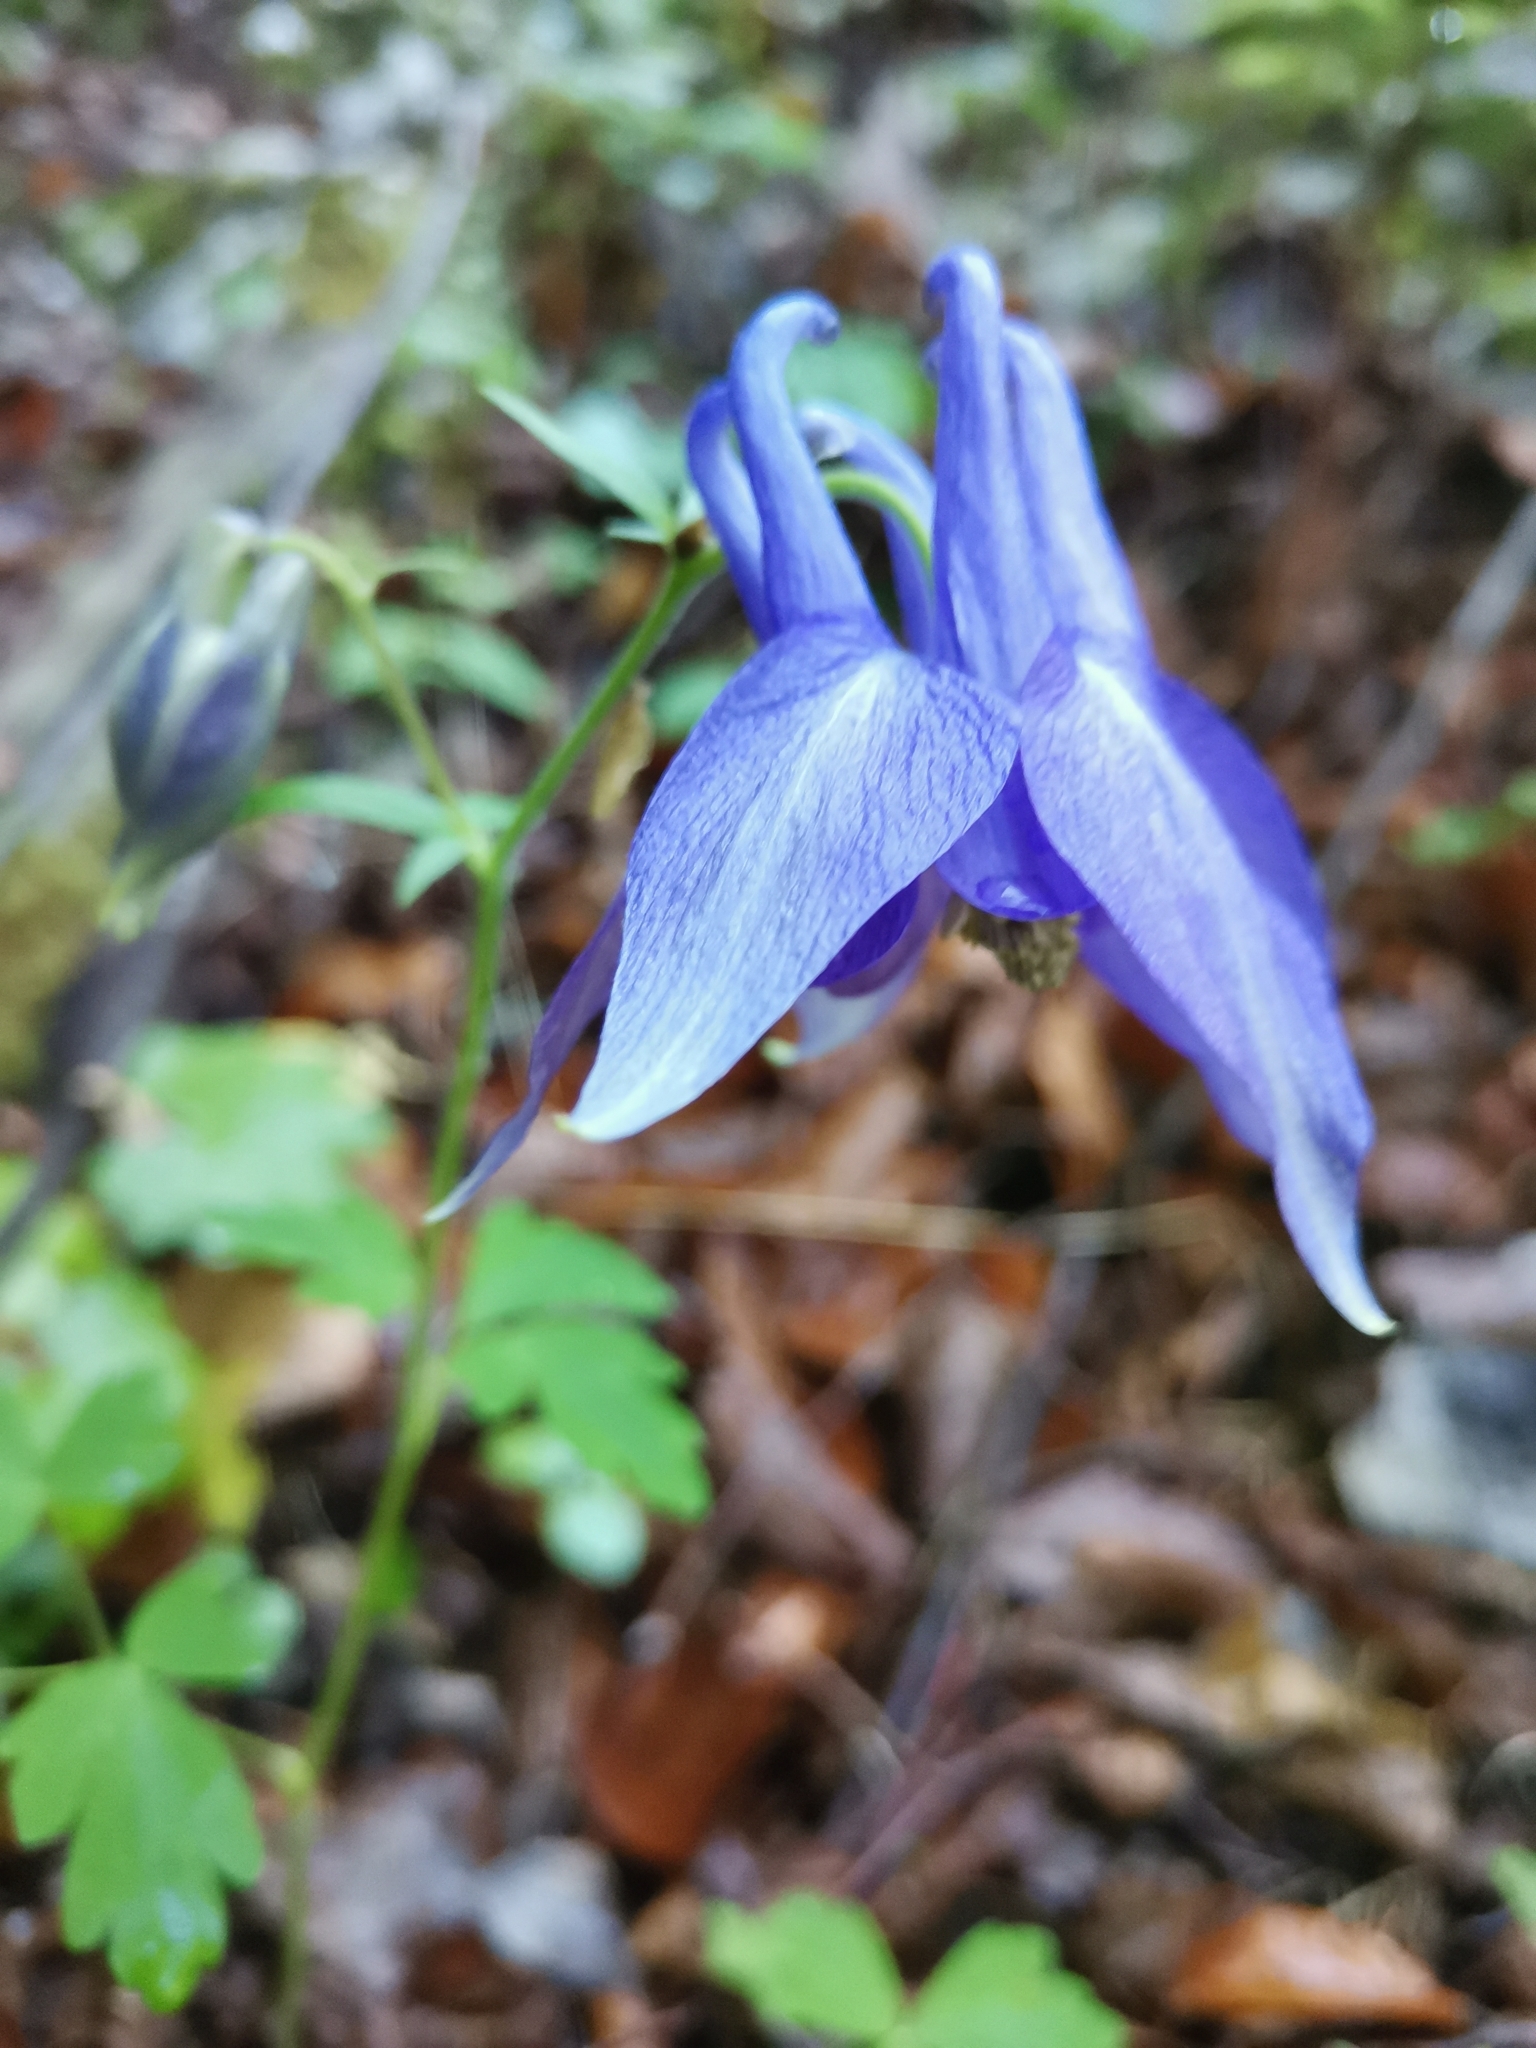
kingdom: Plantae
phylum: Tracheophyta
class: Magnoliopsida
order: Ranunculales
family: Ranunculaceae
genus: Aquilegia
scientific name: Aquilegia nigricans
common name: Bulgarian columbine
